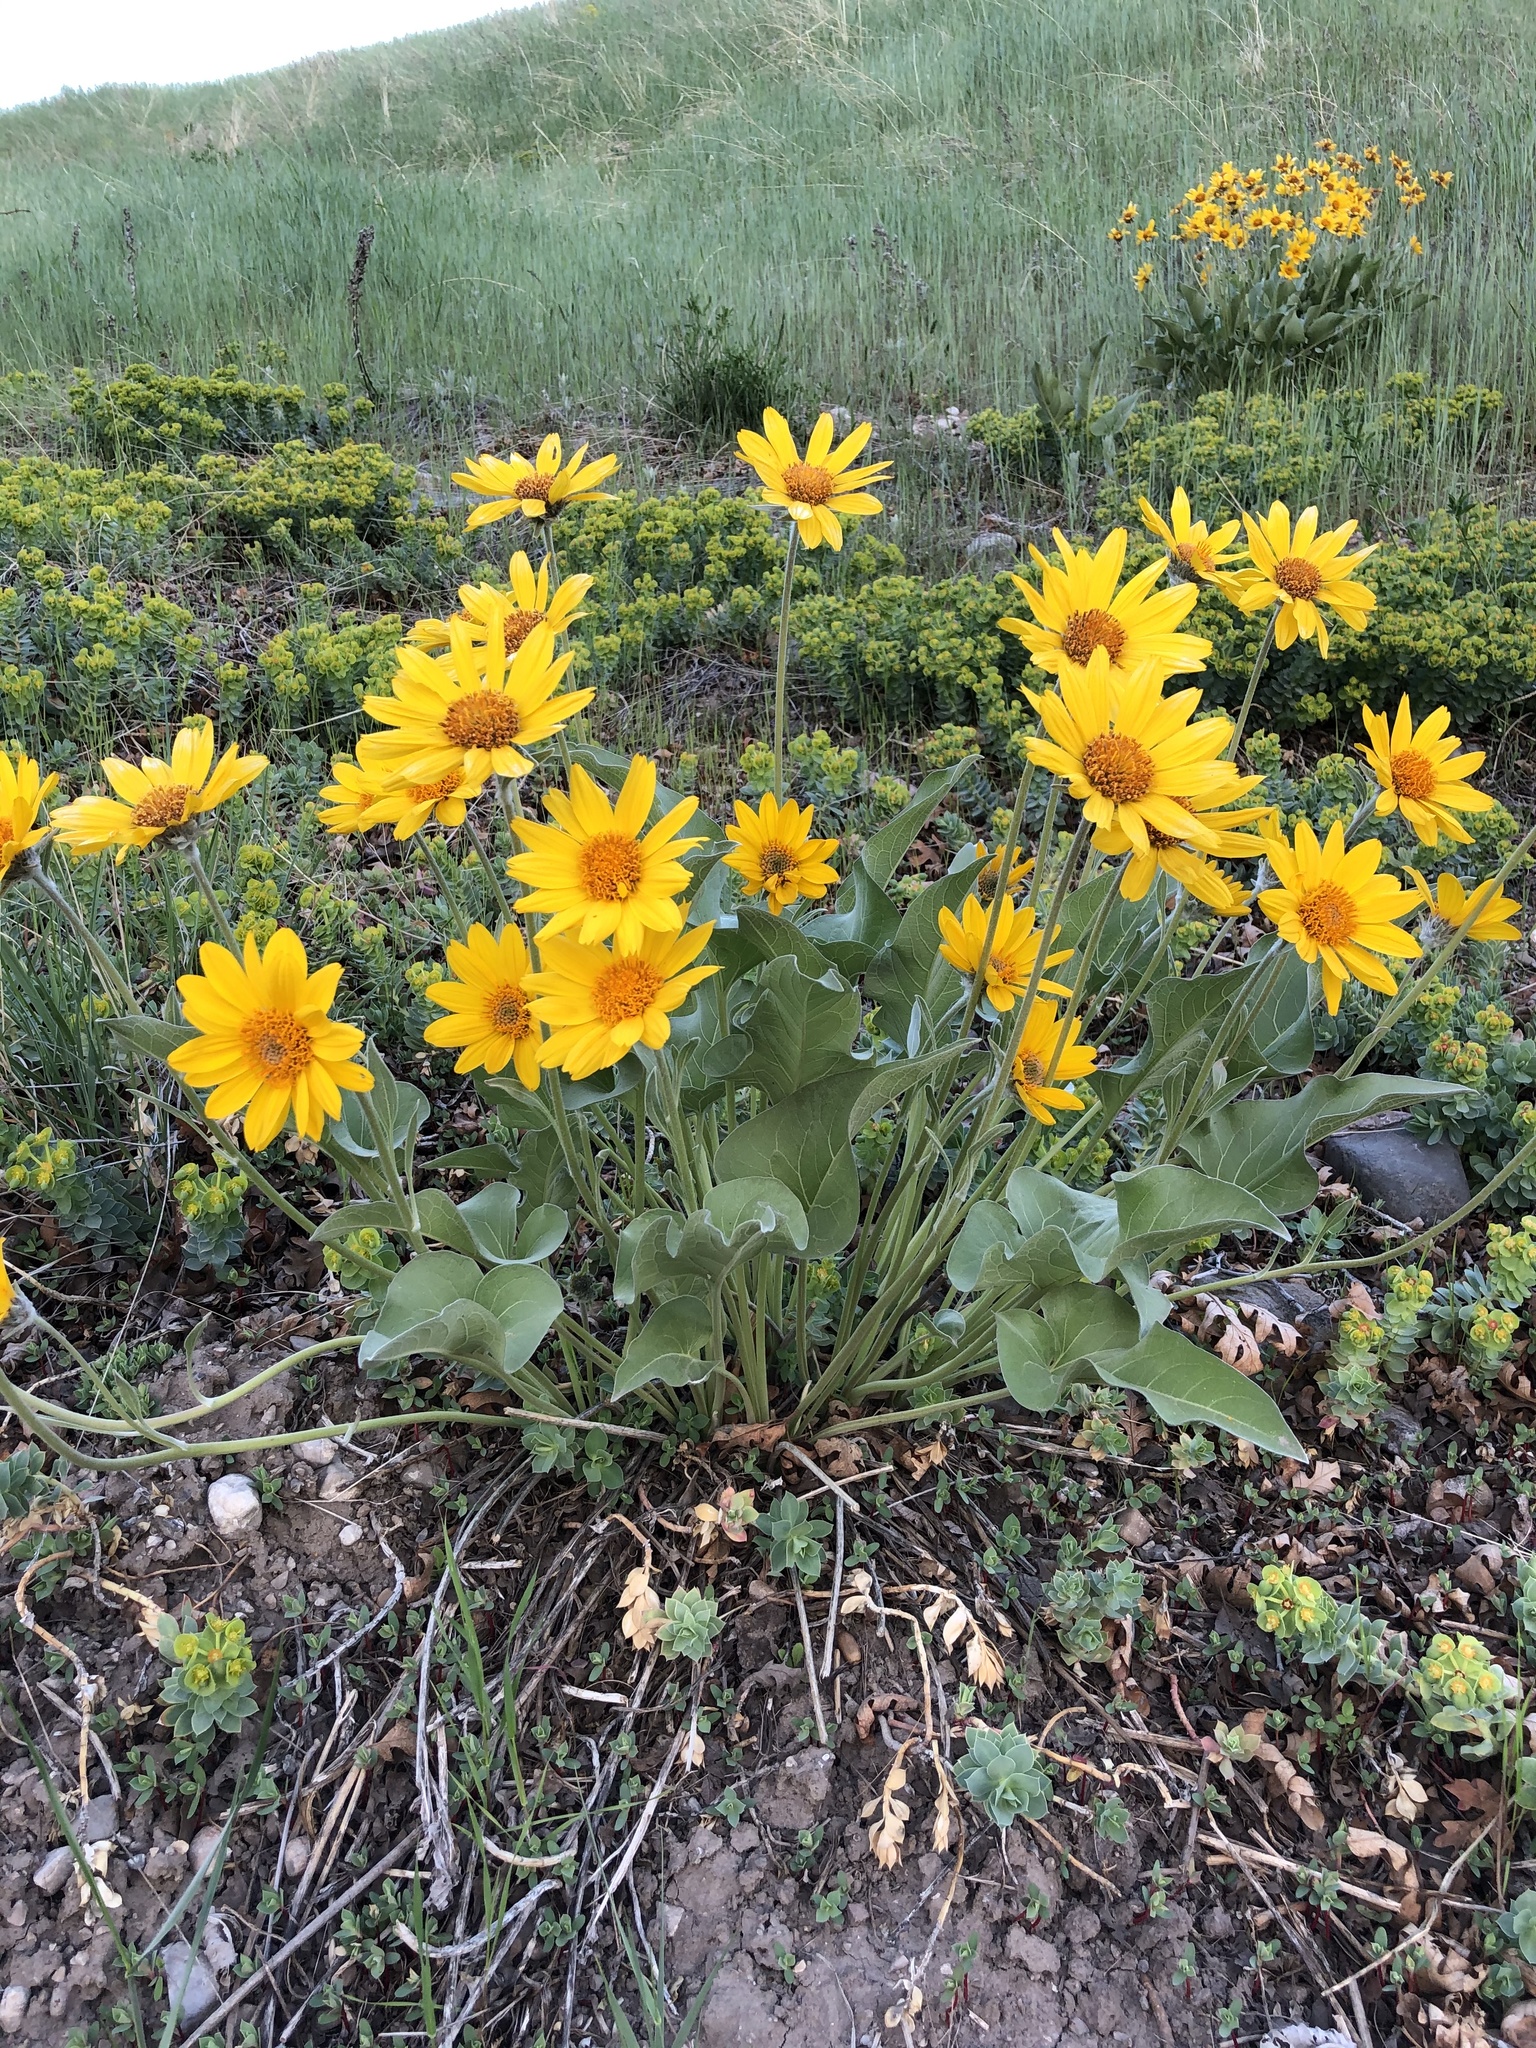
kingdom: Plantae
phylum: Tracheophyta
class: Magnoliopsida
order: Asterales
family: Asteraceae
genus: Wyethia
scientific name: Wyethia sagittata
